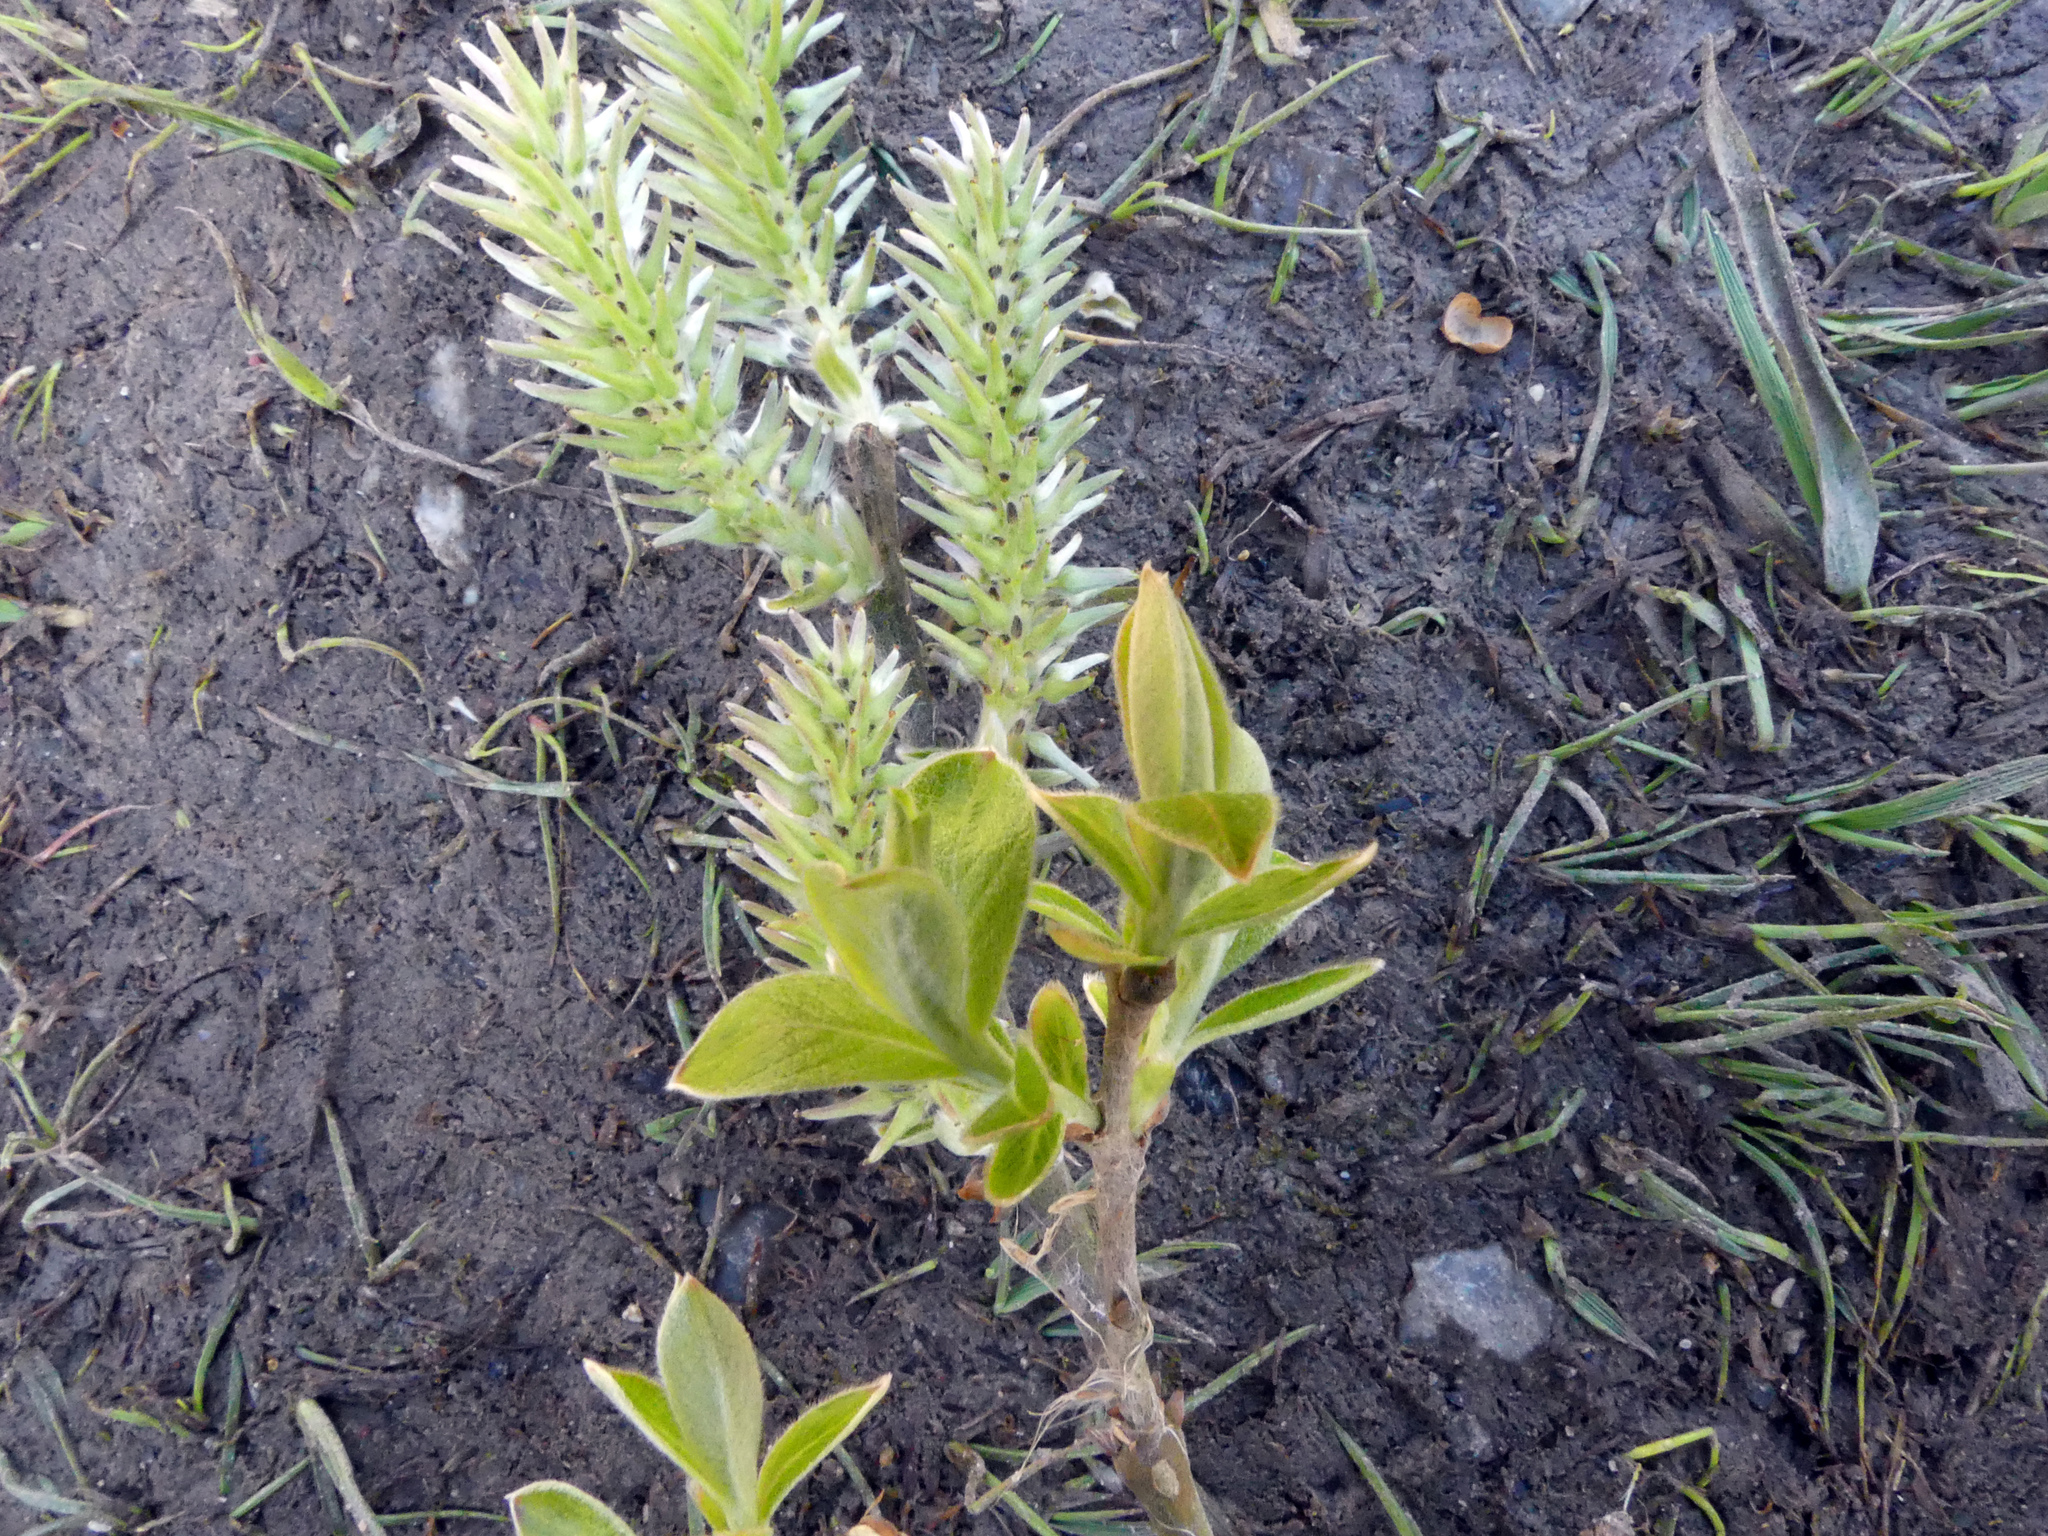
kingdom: Plantae
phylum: Tracheophyta
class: Magnoliopsida
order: Malpighiales
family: Salicaceae
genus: Salix
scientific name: Salix cinerea
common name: Common sallow
